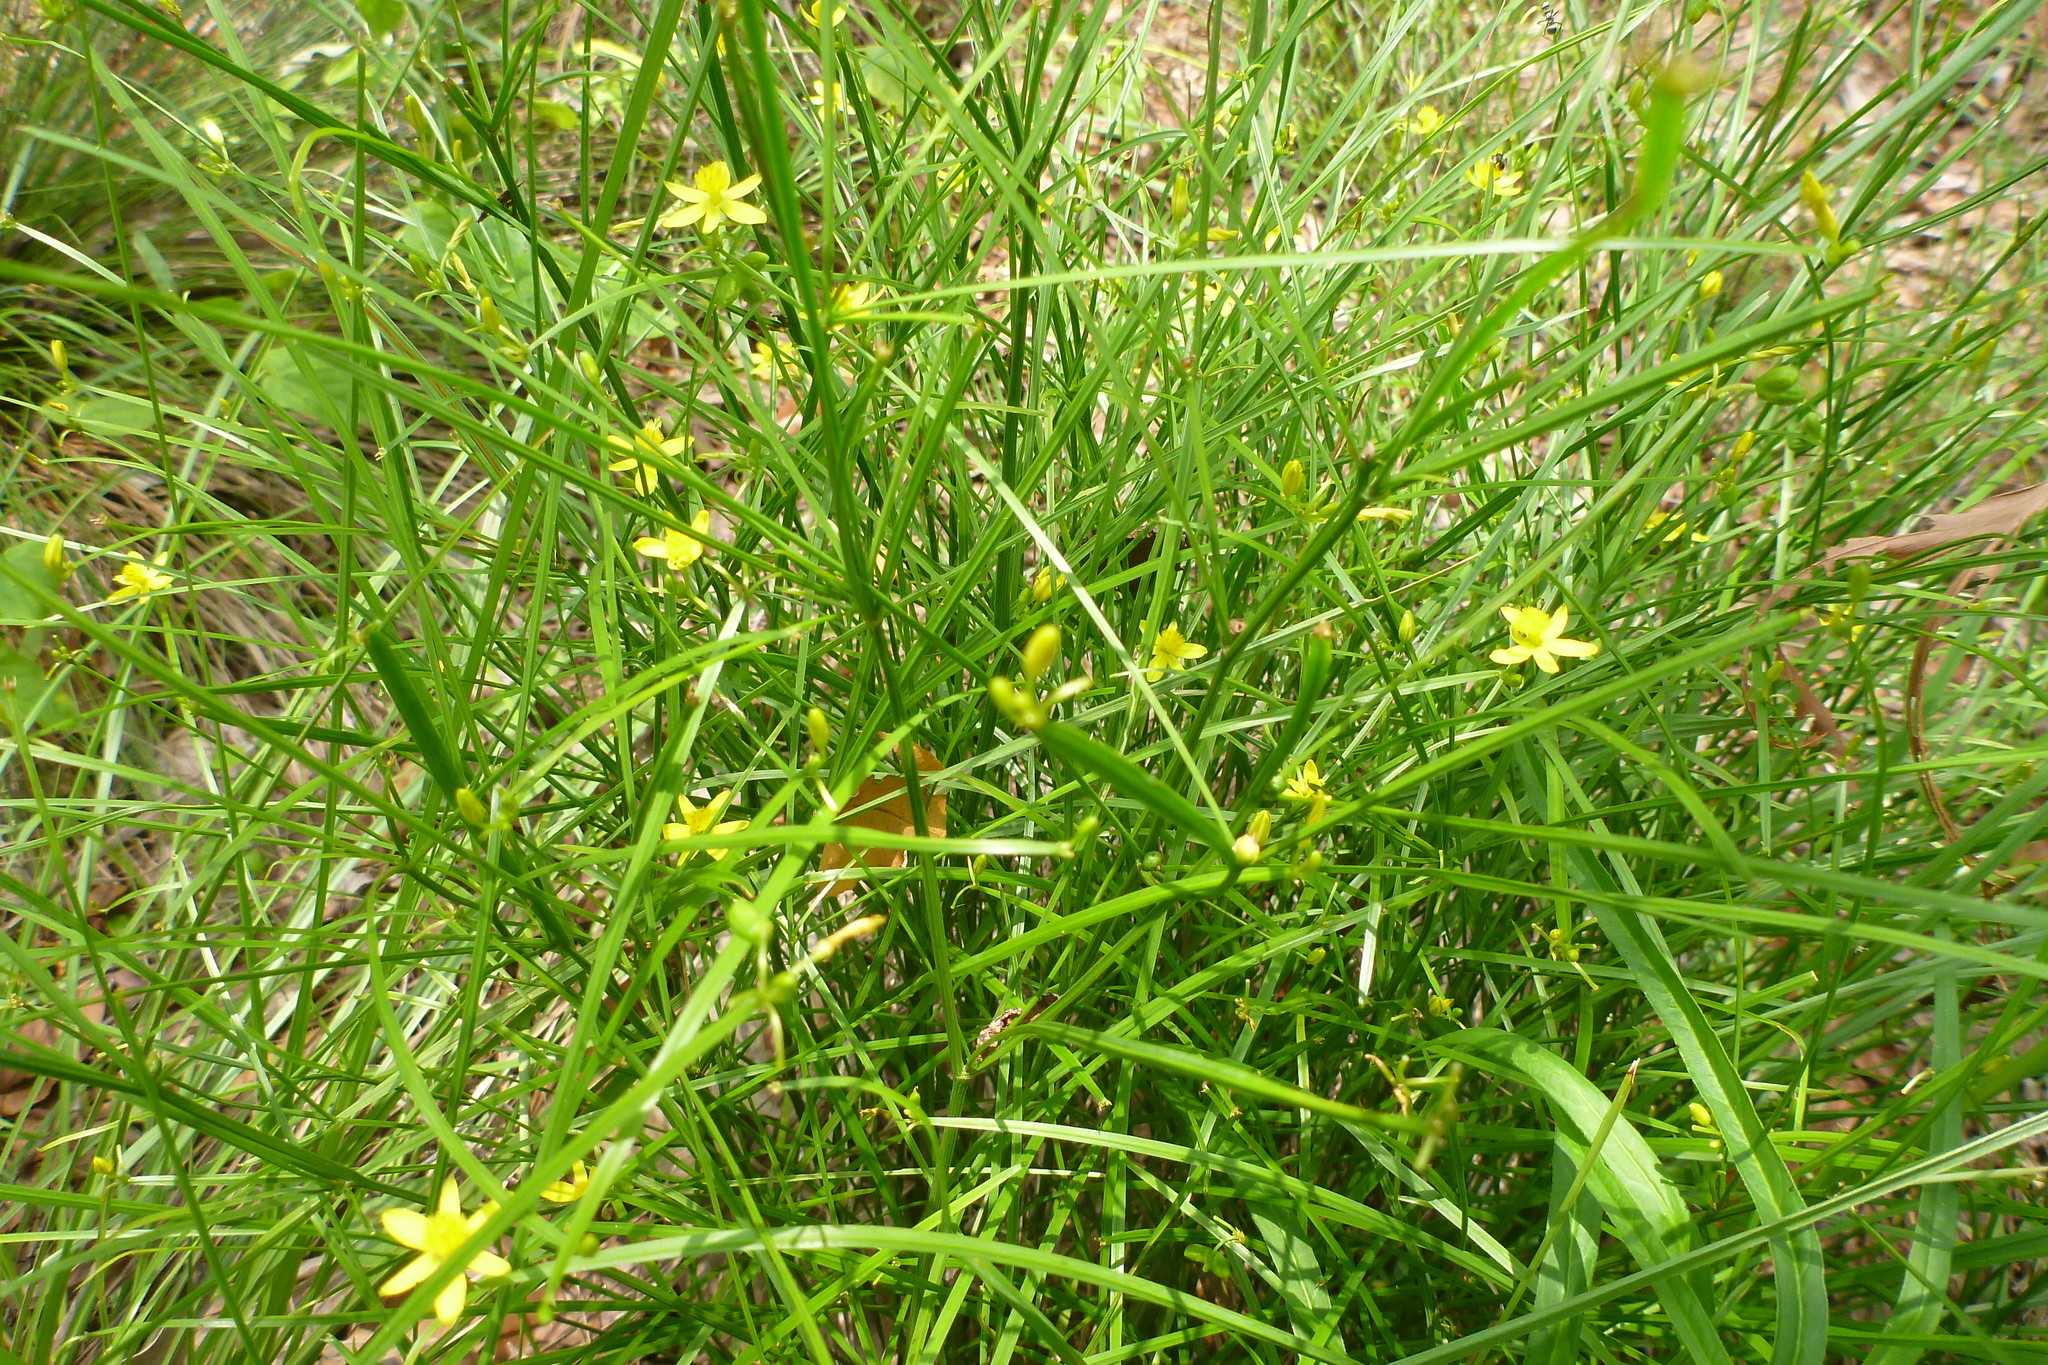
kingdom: Plantae
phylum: Tracheophyta
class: Liliopsida
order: Asparagales
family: Asphodelaceae
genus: Tricoryne
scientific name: Tricoryne anceps
